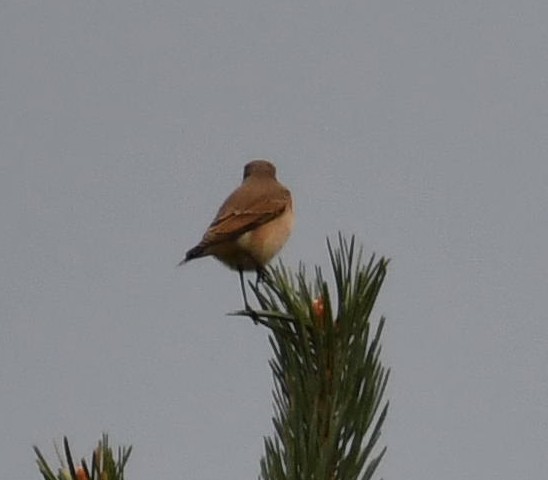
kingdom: Animalia
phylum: Chordata
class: Aves
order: Passeriformes
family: Muscicapidae
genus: Oenanthe
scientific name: Oenanthe oenanthe
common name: Northern wheatear
